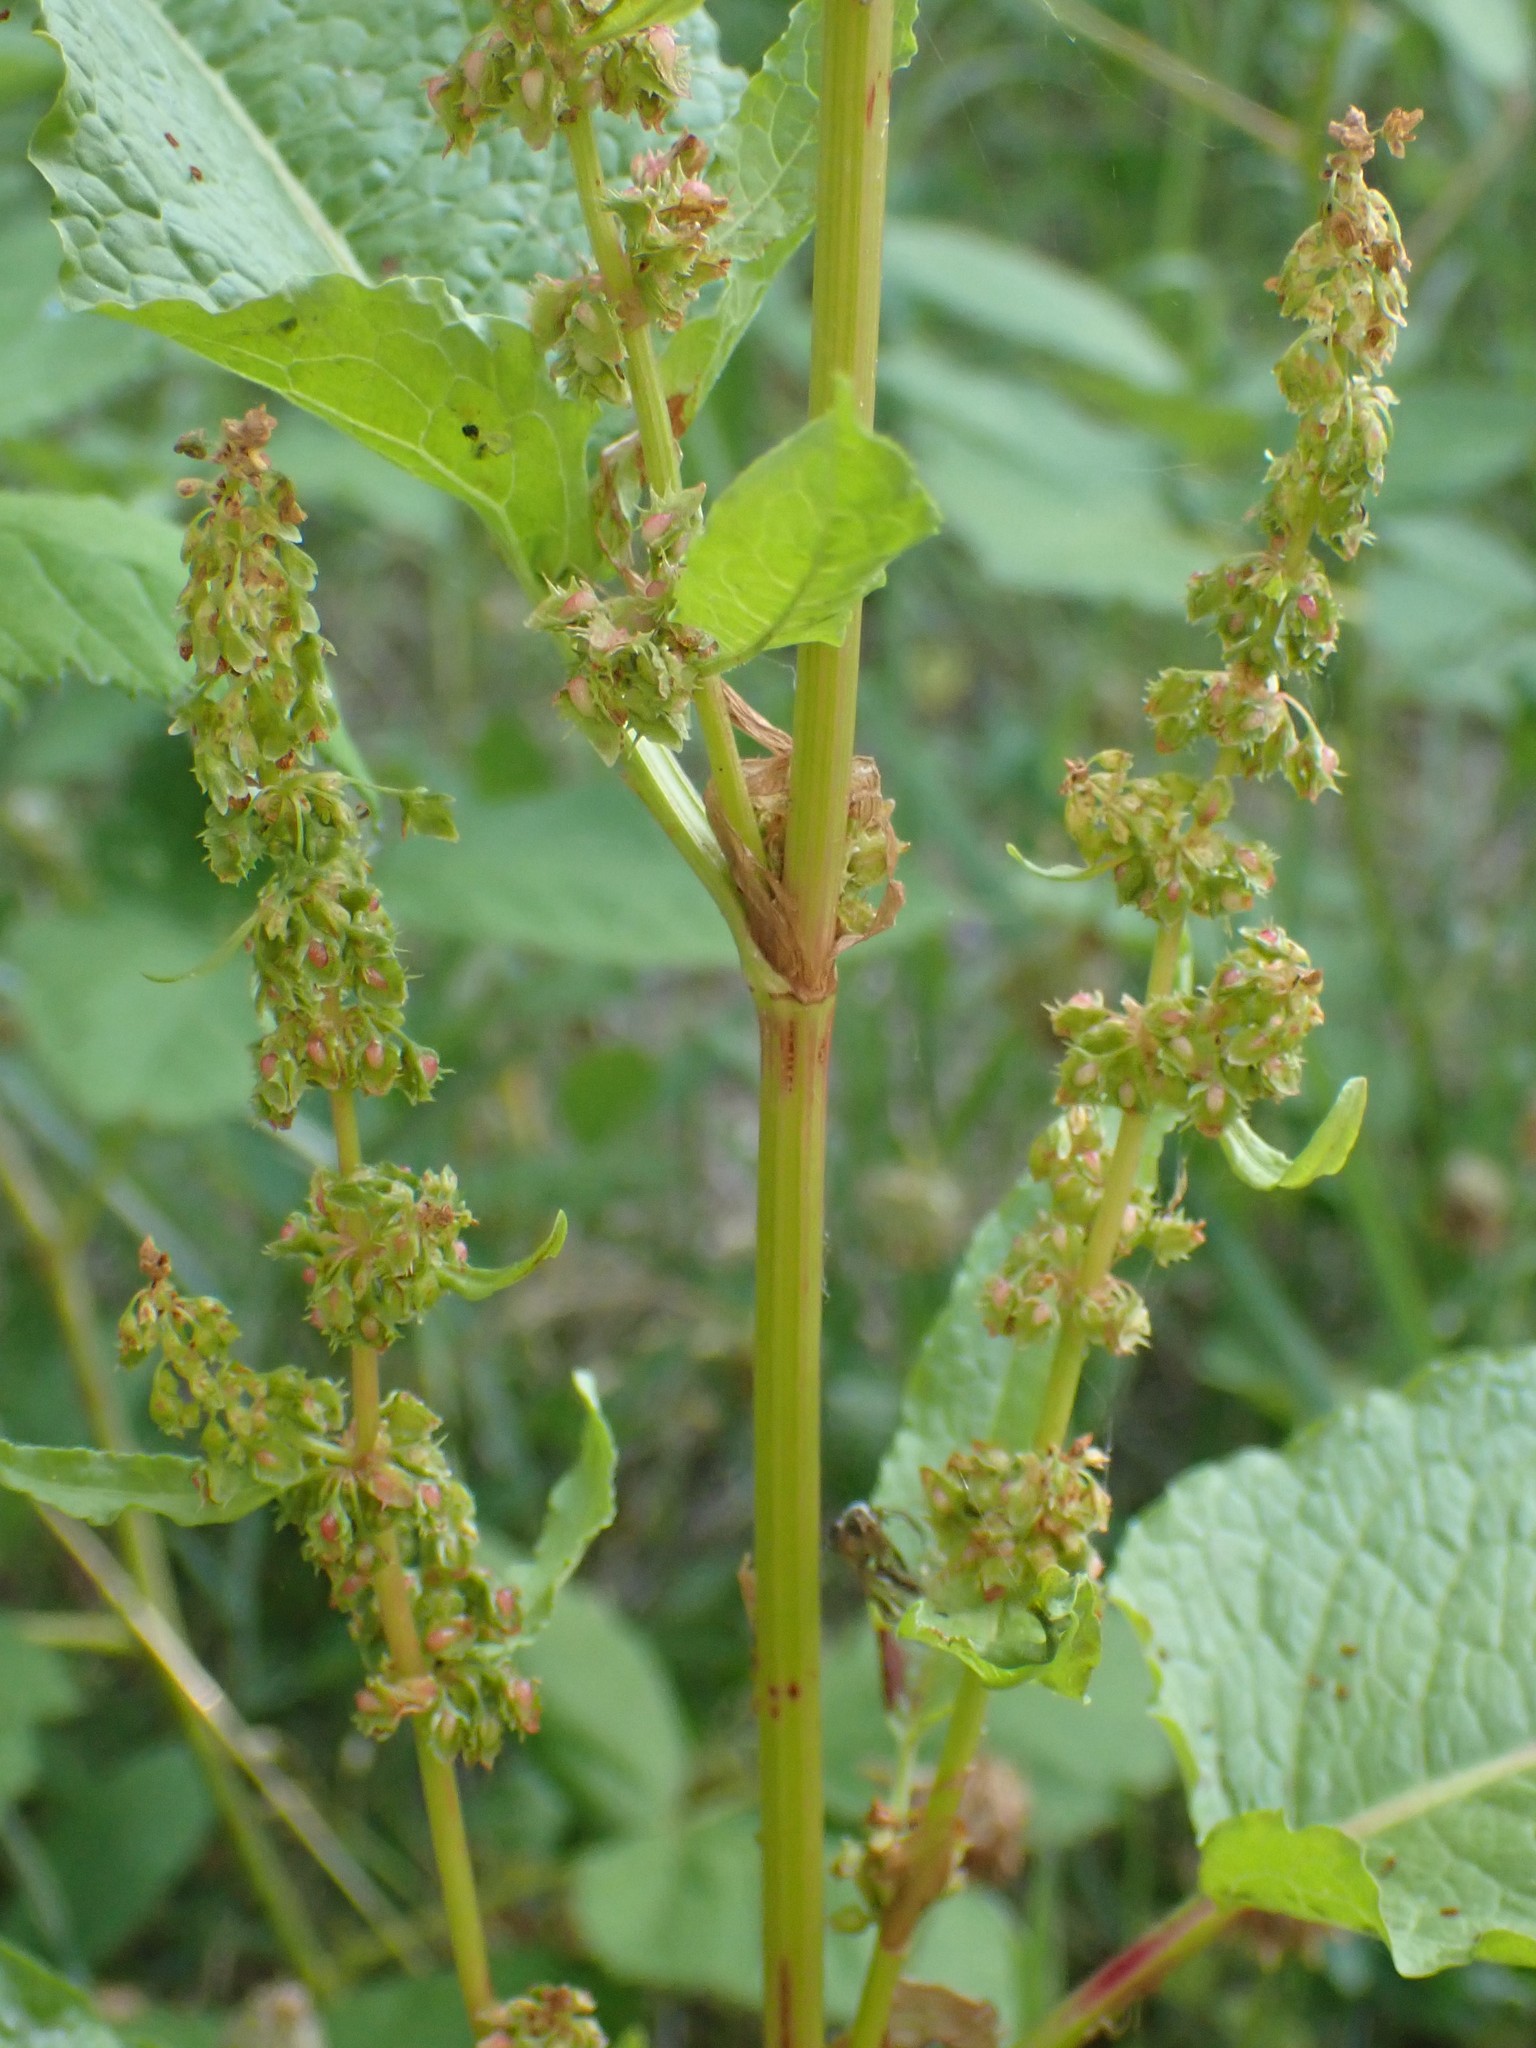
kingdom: Plantae
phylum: Tracheophyta
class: Magnoliopsida
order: Caryophyllales
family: Polygonaceae
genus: Rumex
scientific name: Rumex obtusifolius
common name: Bitter dock
